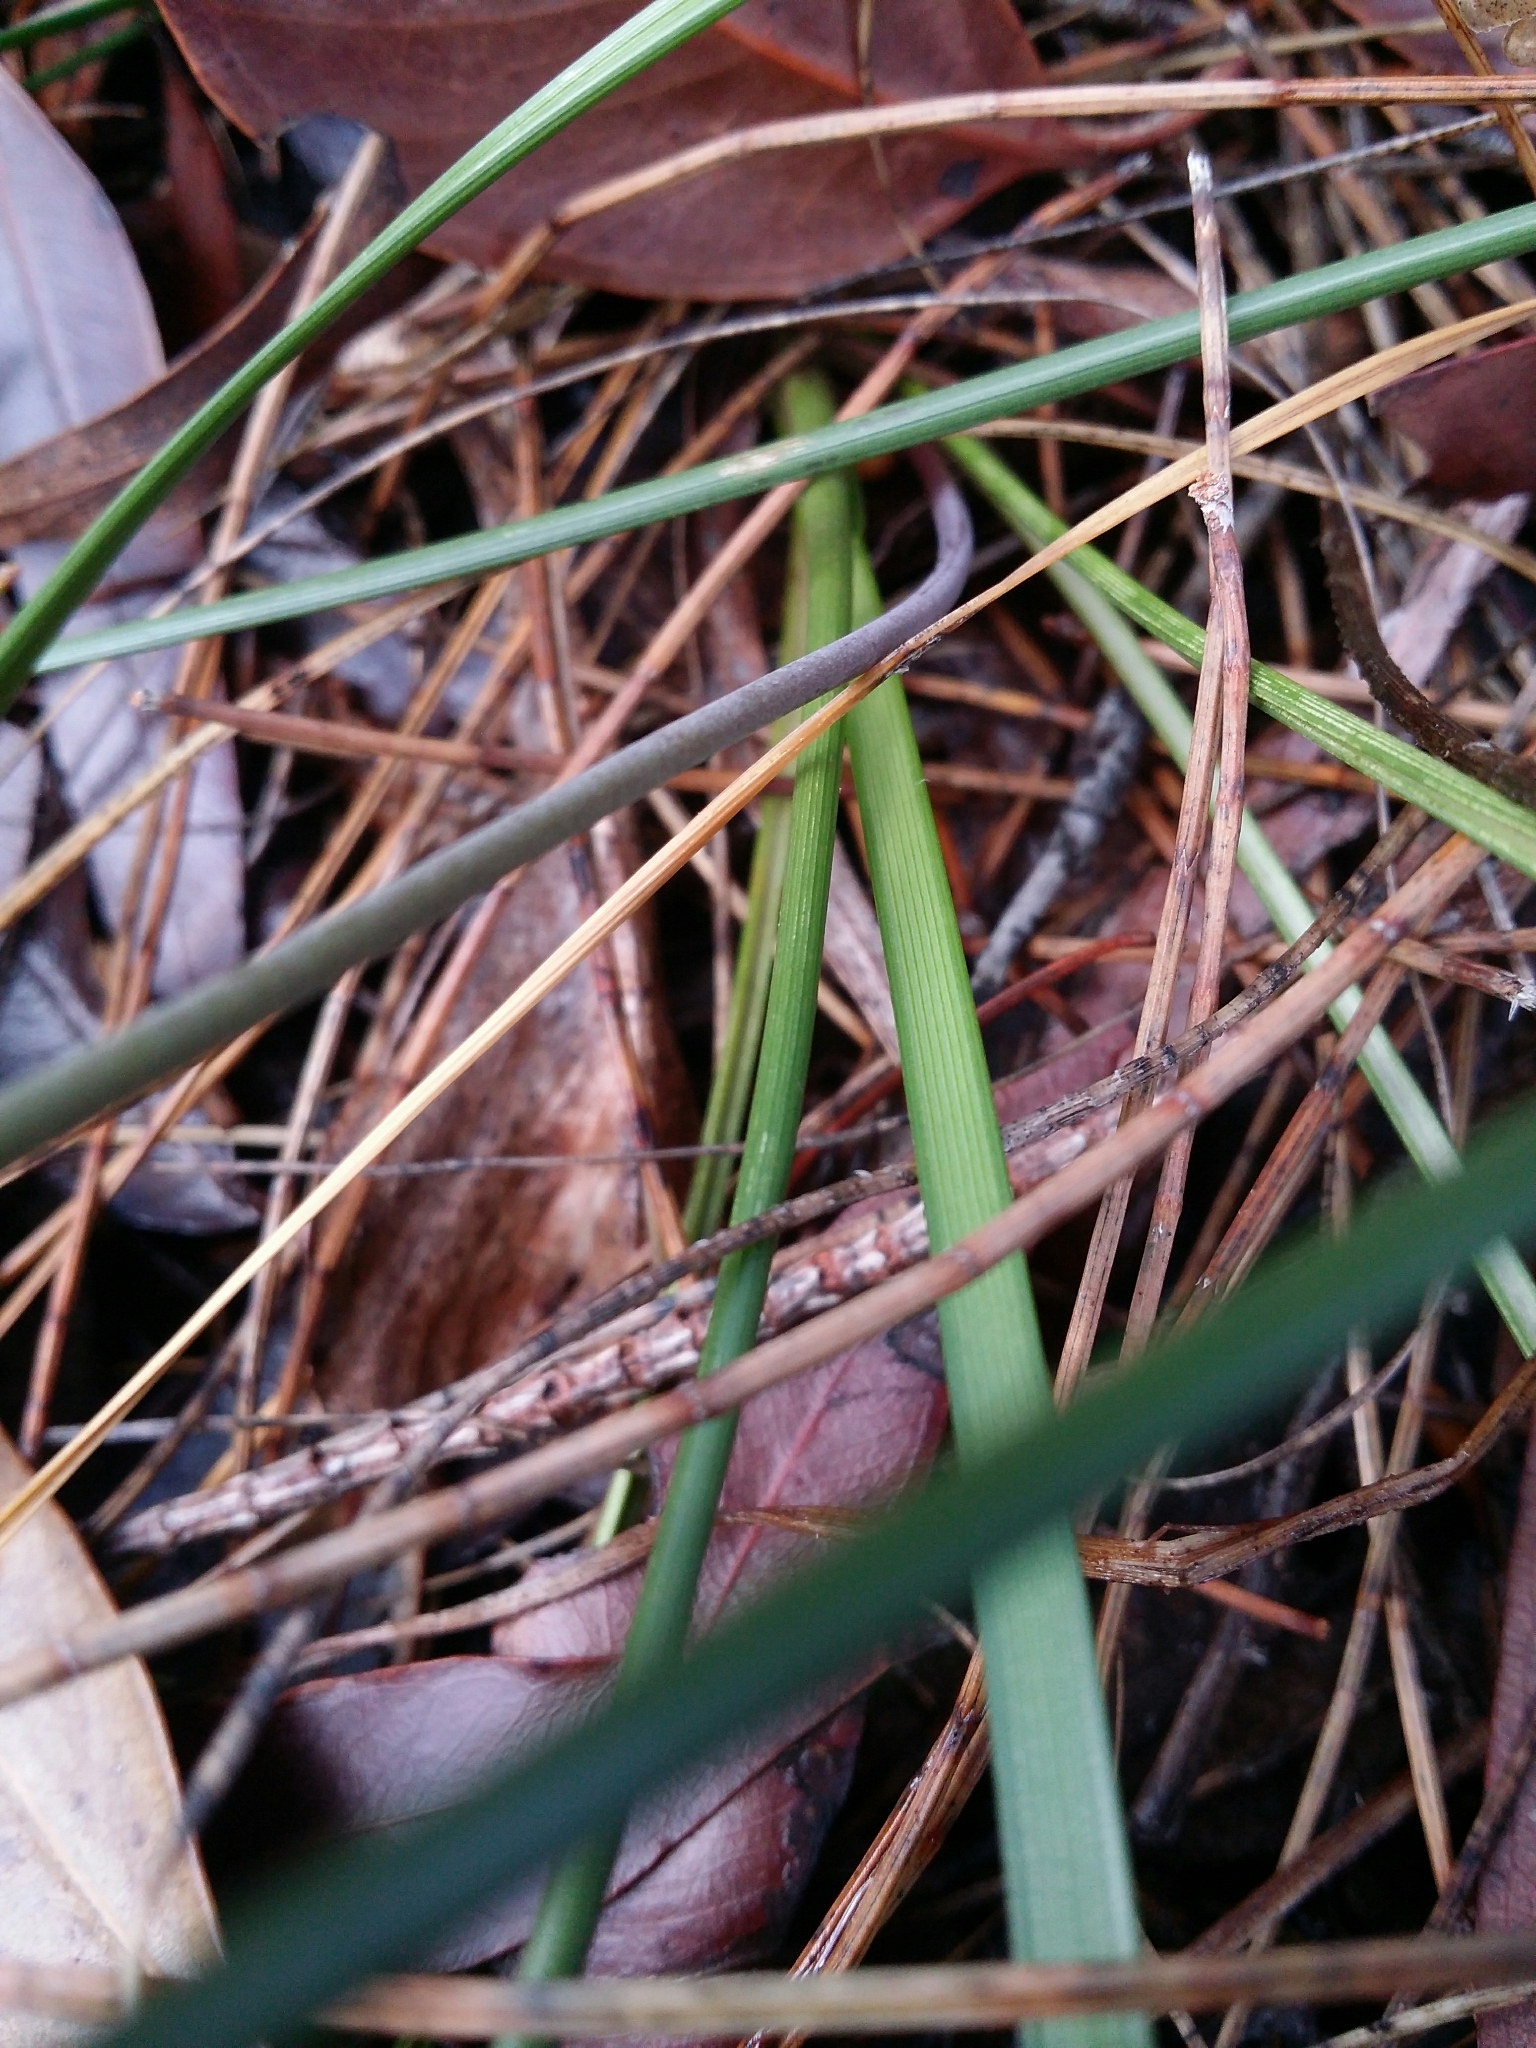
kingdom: Plantae
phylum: Tracheophyta
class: Liliopsida
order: Asparagales
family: Asparagaceae
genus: Lomandra
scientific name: Lomandra preissii
